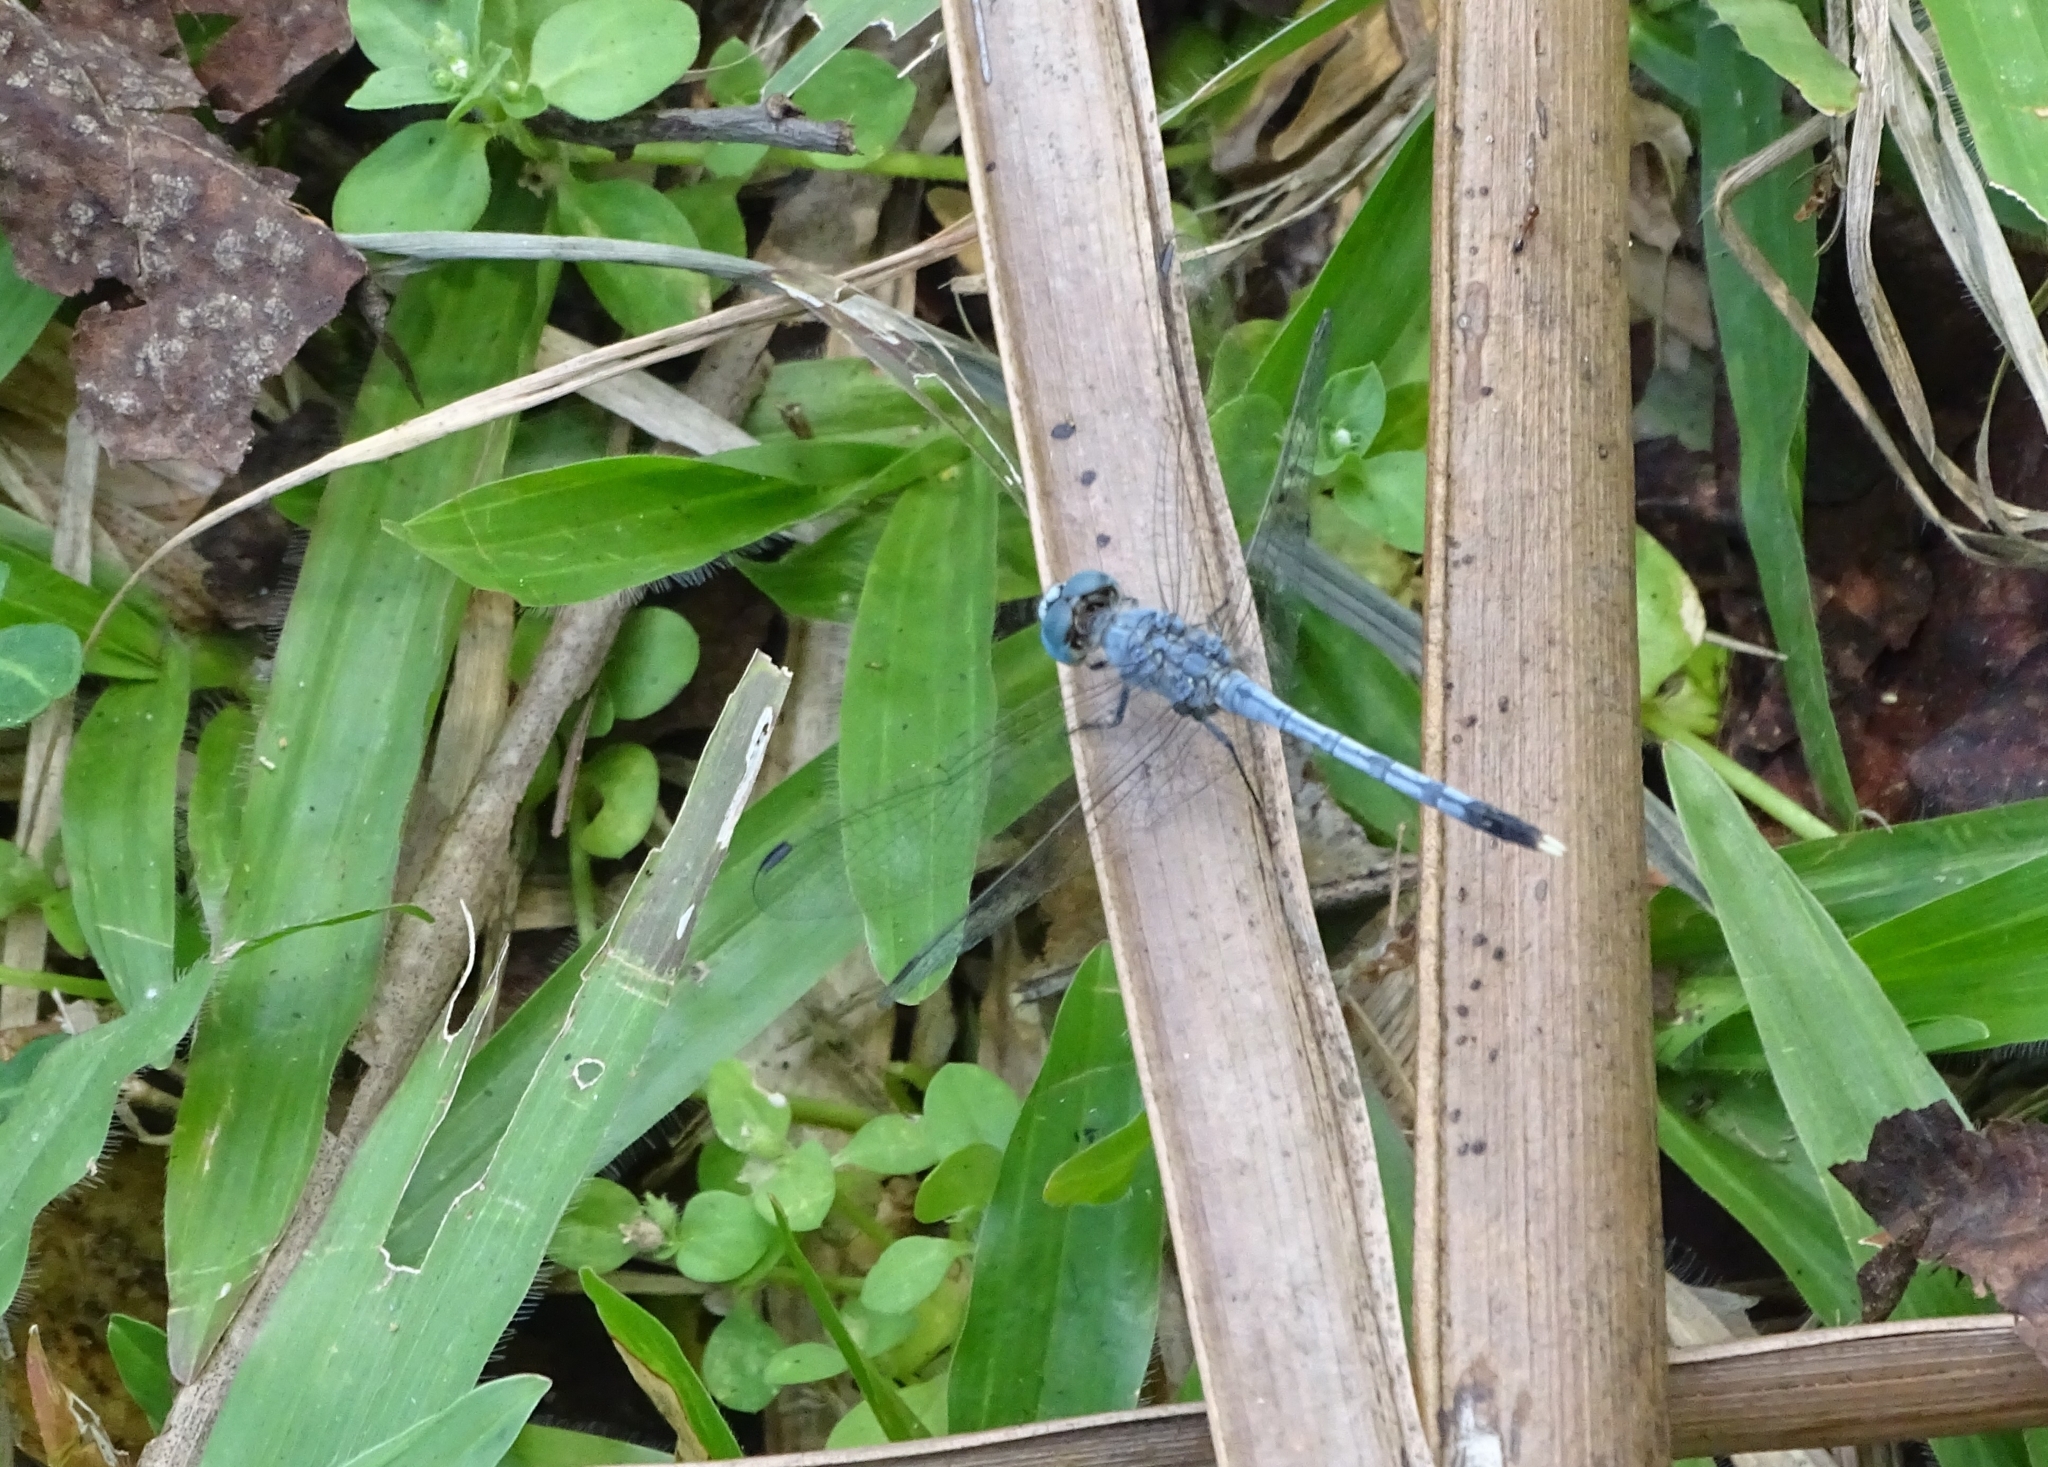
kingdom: Animalia
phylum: Arthropoda
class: Insecta
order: Odonata
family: Libellulidae
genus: Diplacodes
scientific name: Diplacodes trivialis
